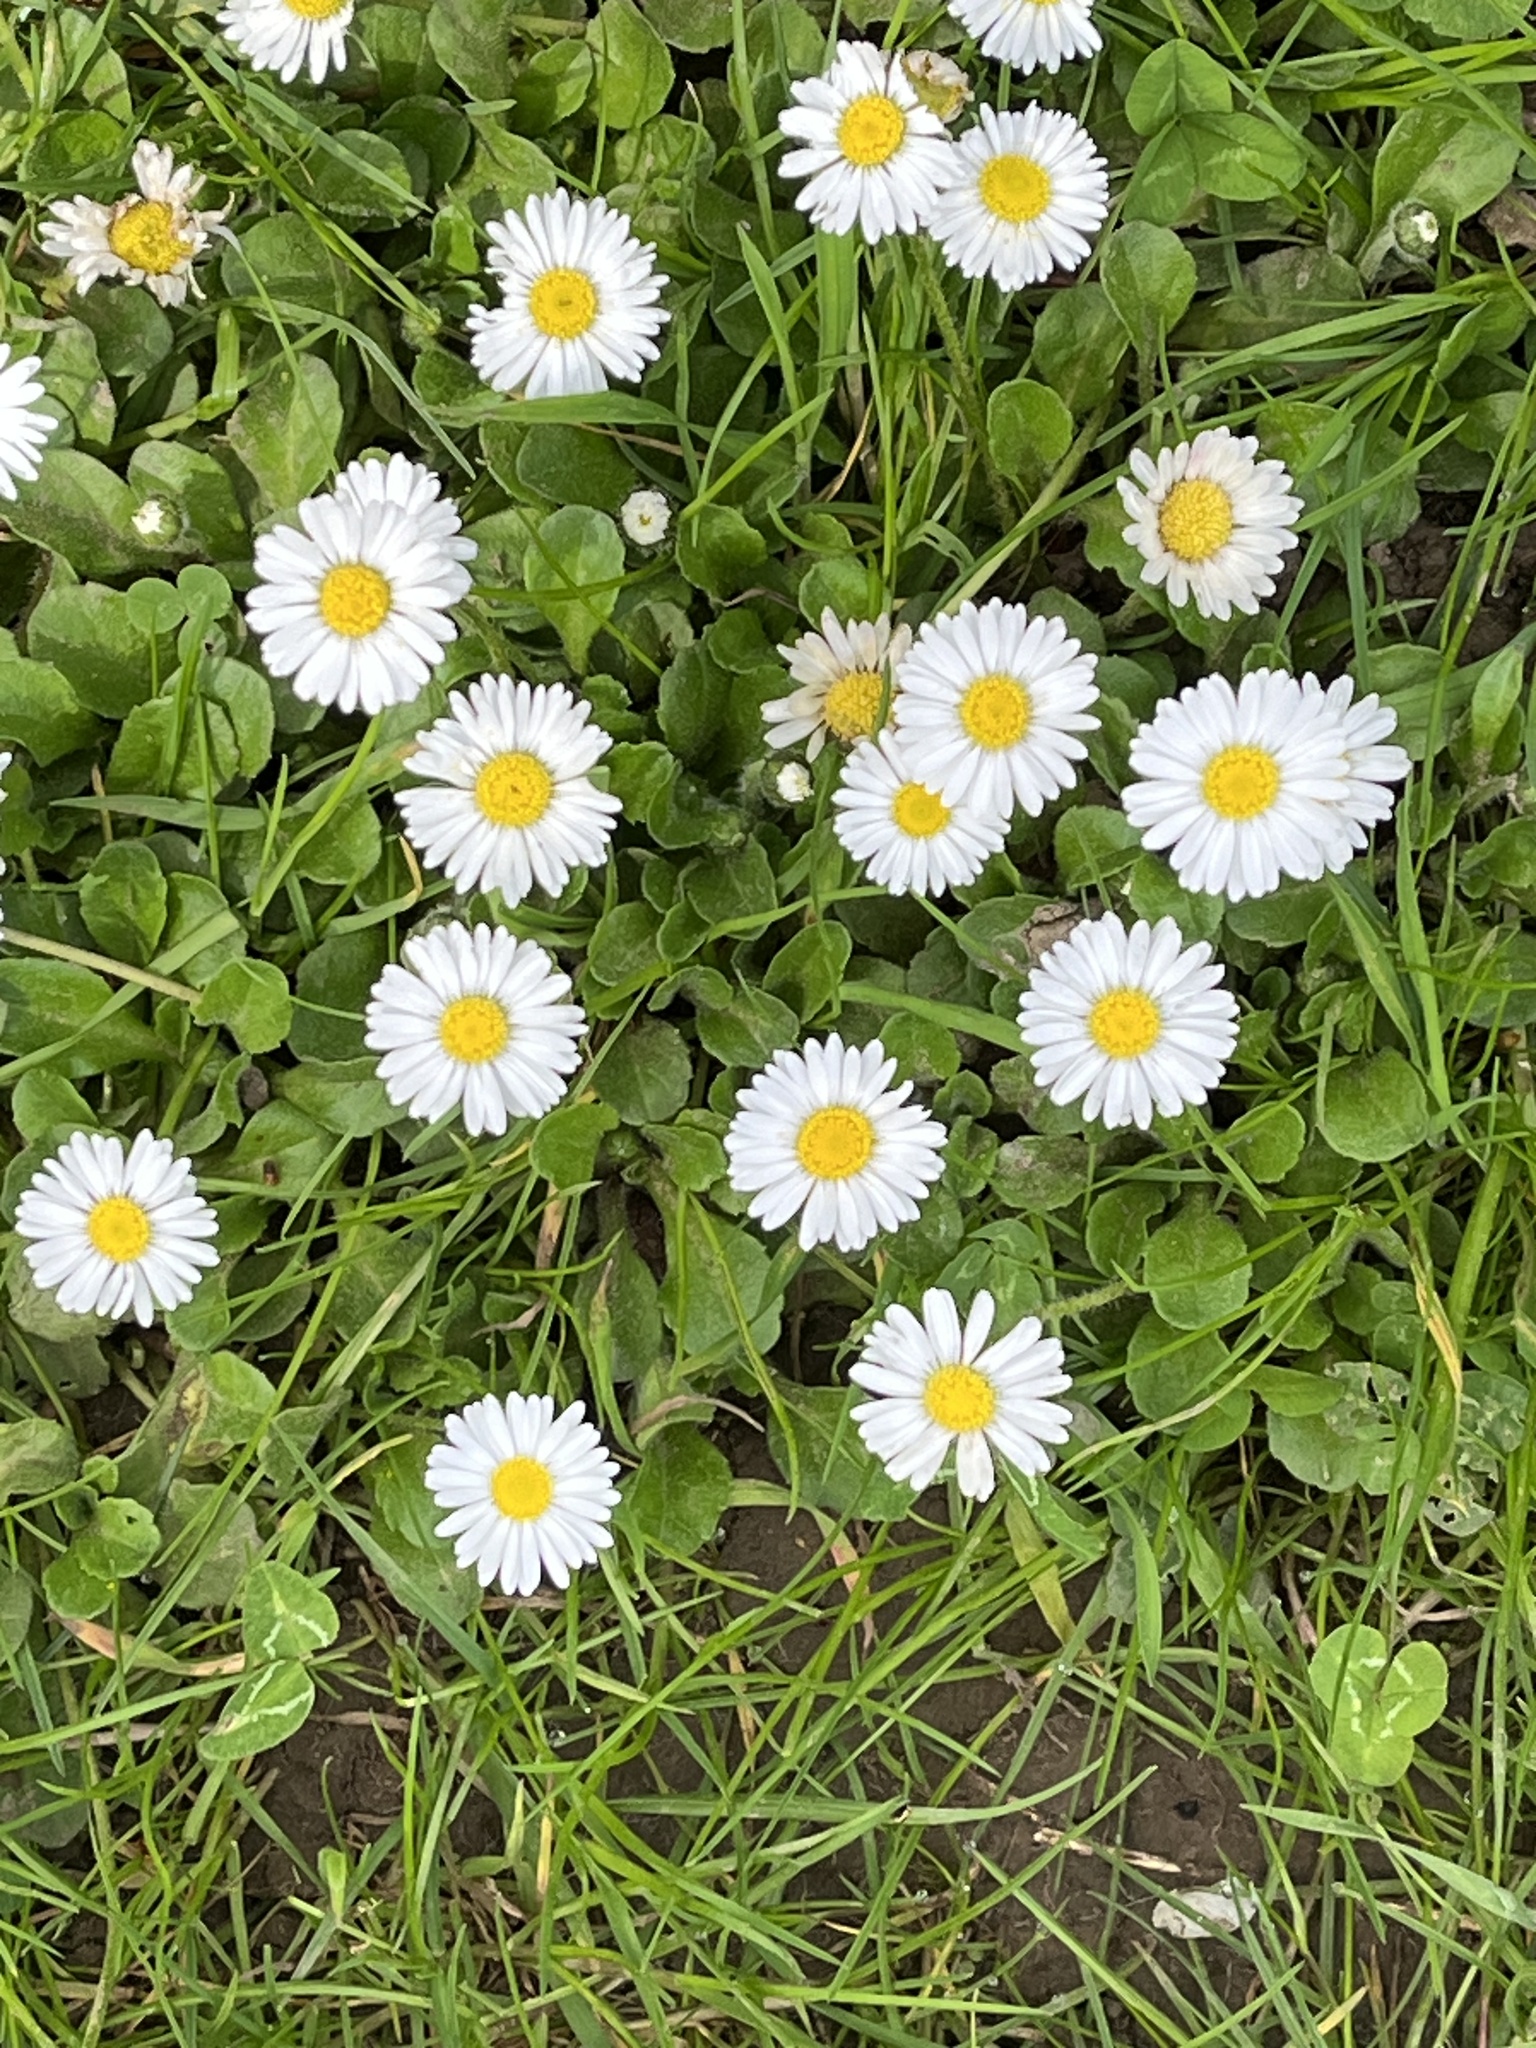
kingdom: Plantae
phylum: Tracheophyta
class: Magnoliopsida
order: Asterales
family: Asteraceae
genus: Bellis
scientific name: Bellis perennis
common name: Lawndaisy
